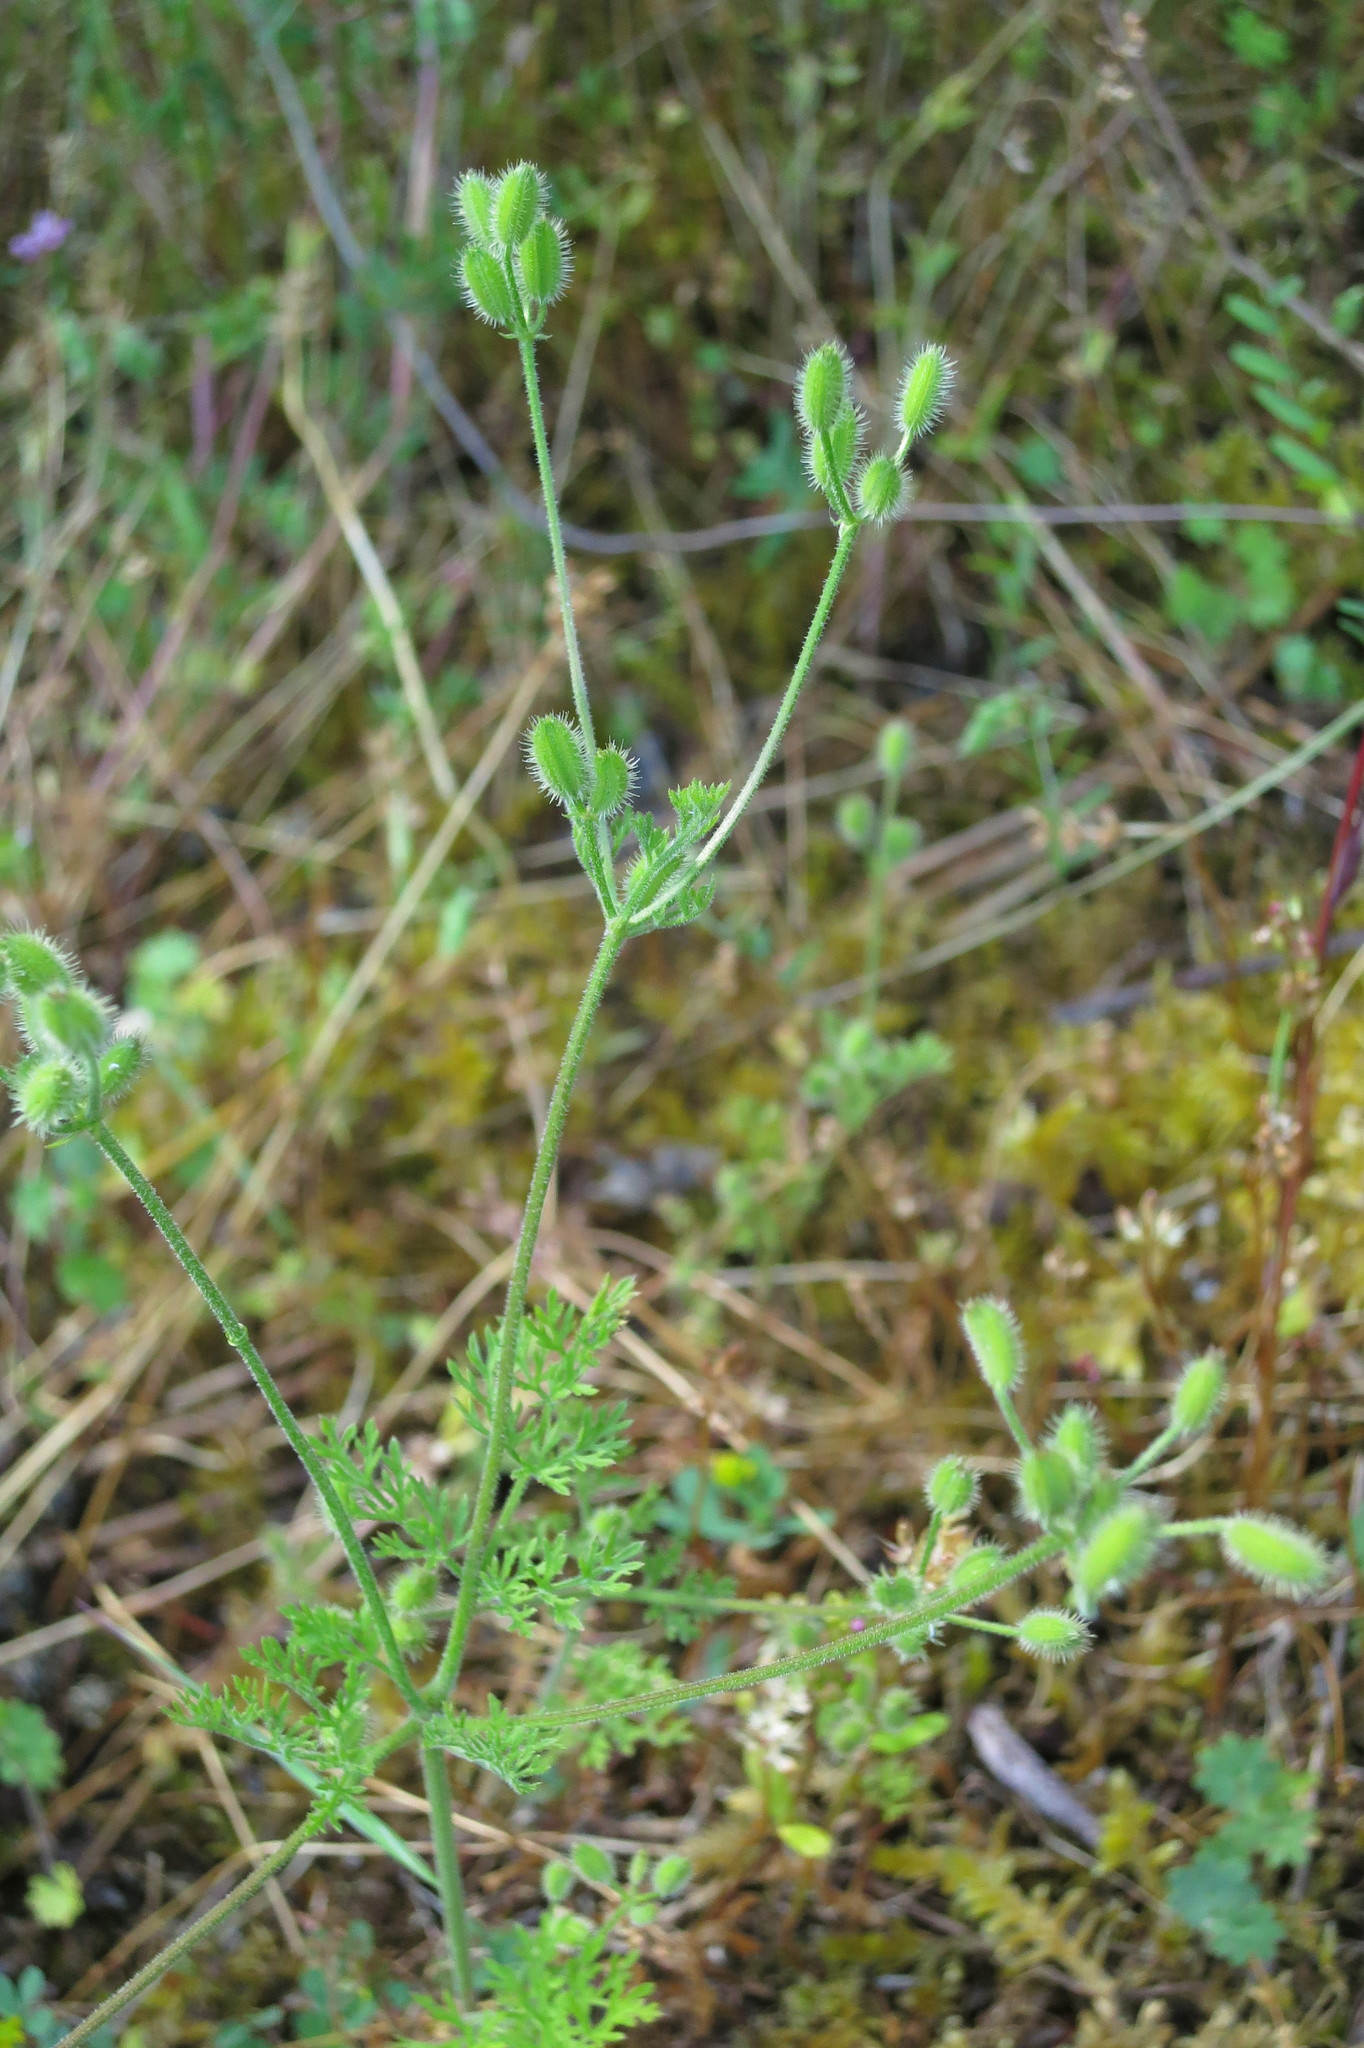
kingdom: Plantae
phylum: Tracheophyta
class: Magnoliopsida
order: Apiales
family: Apiaceae
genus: Yabea
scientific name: Yabea microcarpa
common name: False carrot
